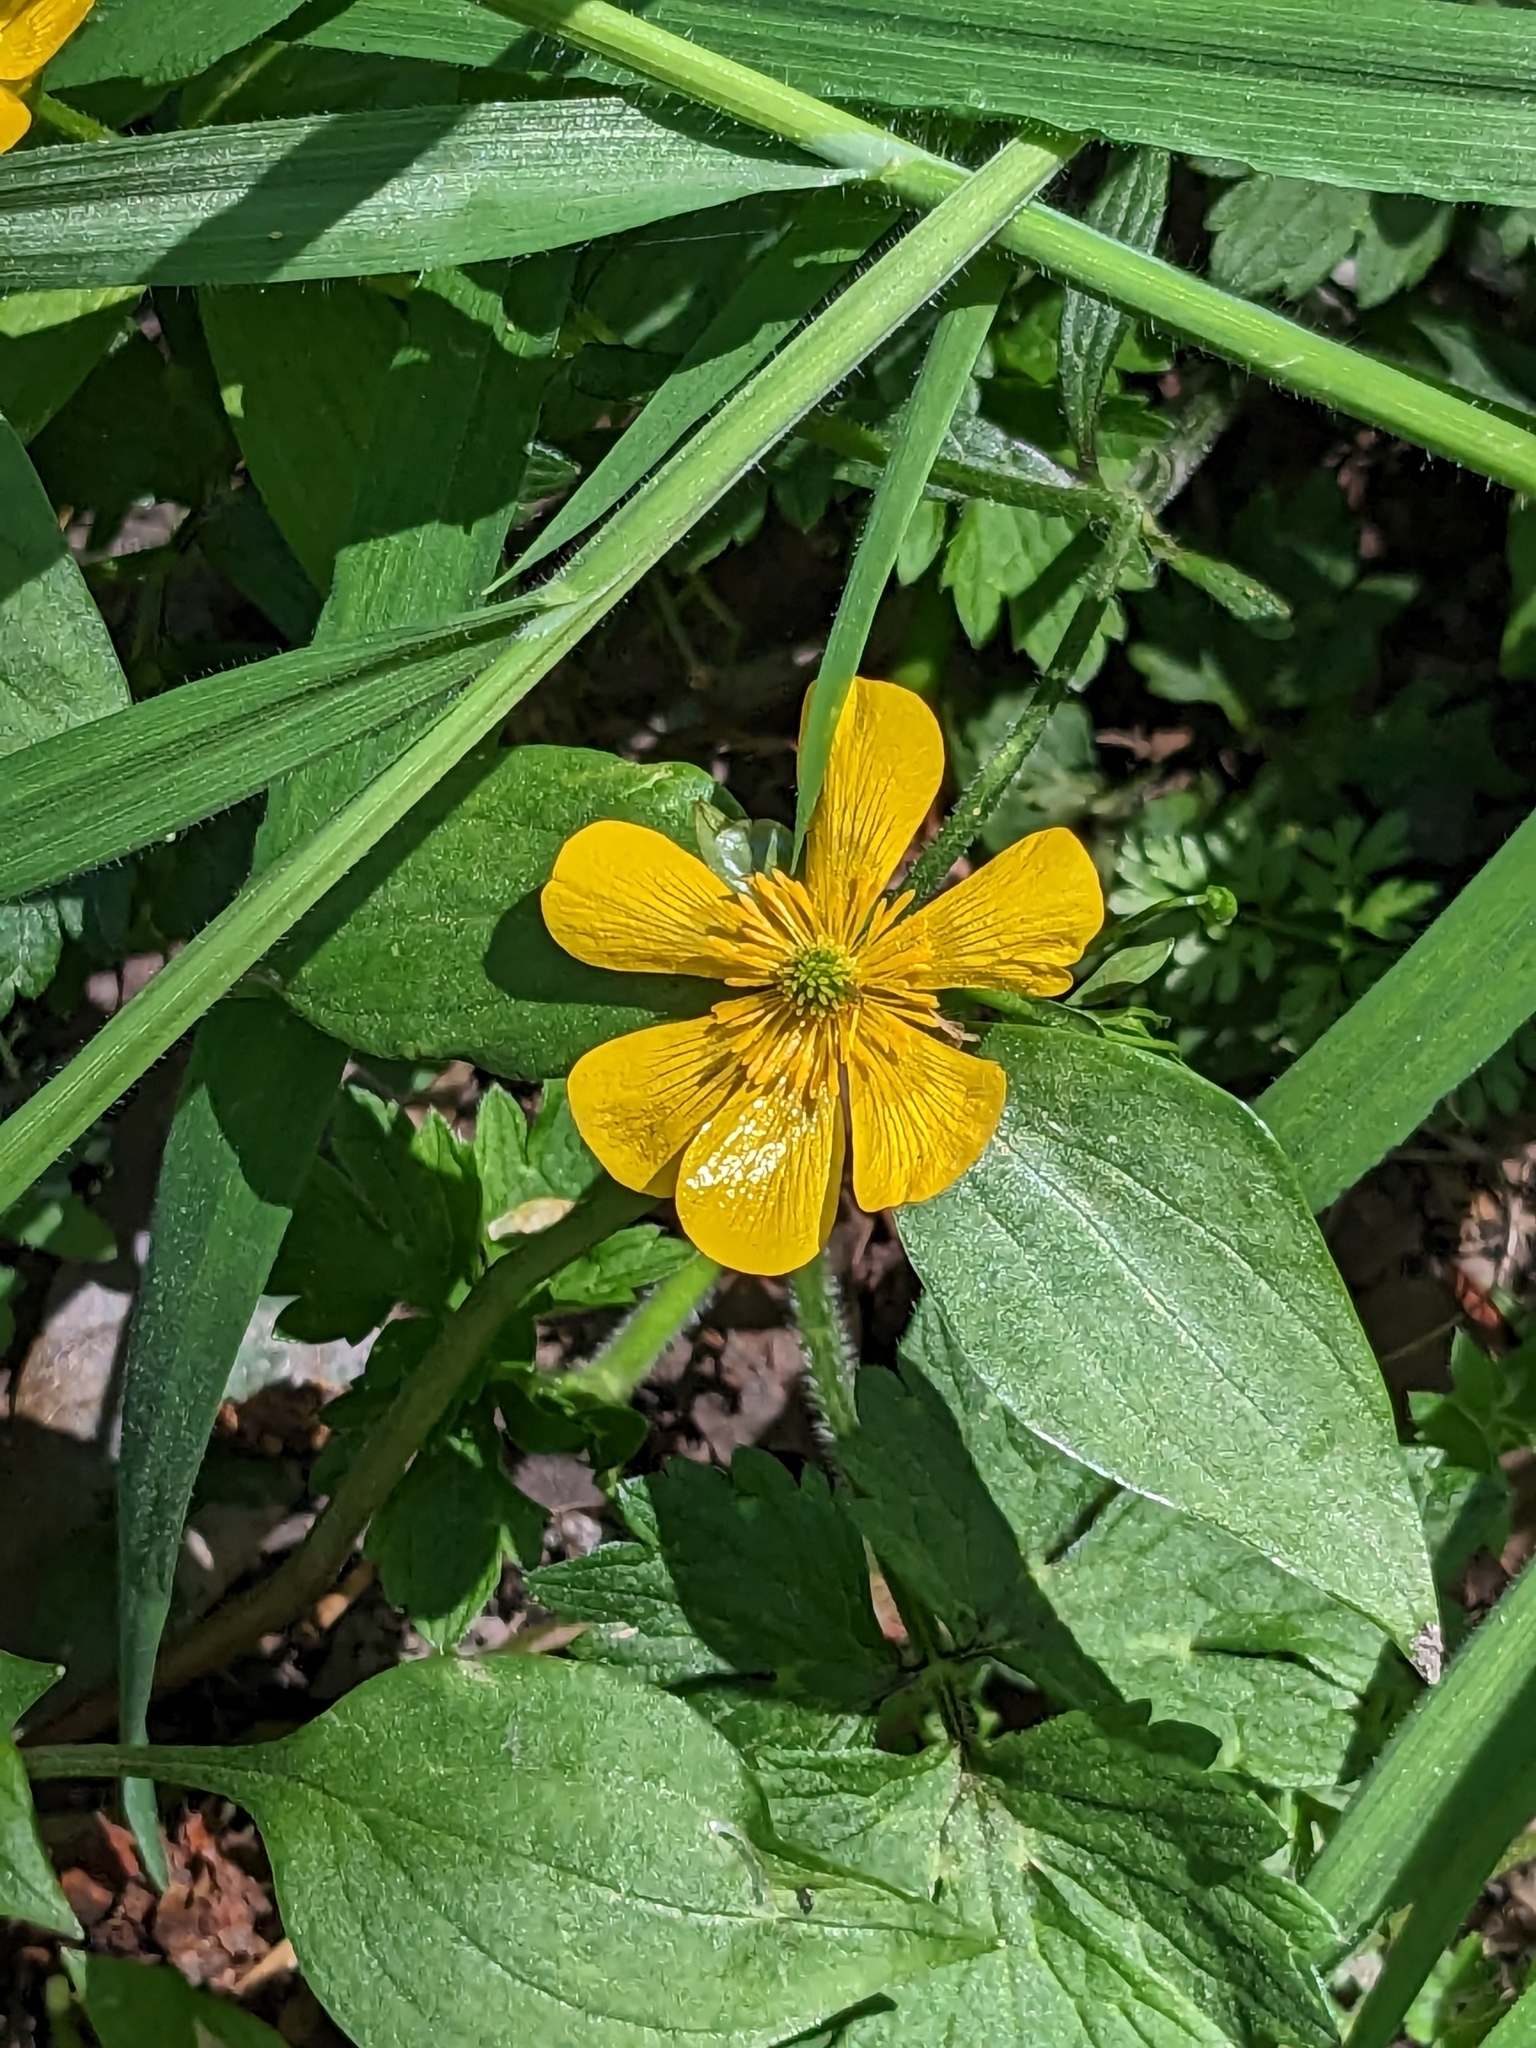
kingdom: Plantae
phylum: Tracheophyta
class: Magnoliopsida
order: Ranunculales
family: Ranunculaceae
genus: Ranunculus
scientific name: Ranunculus repens
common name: Creeping buttercup
